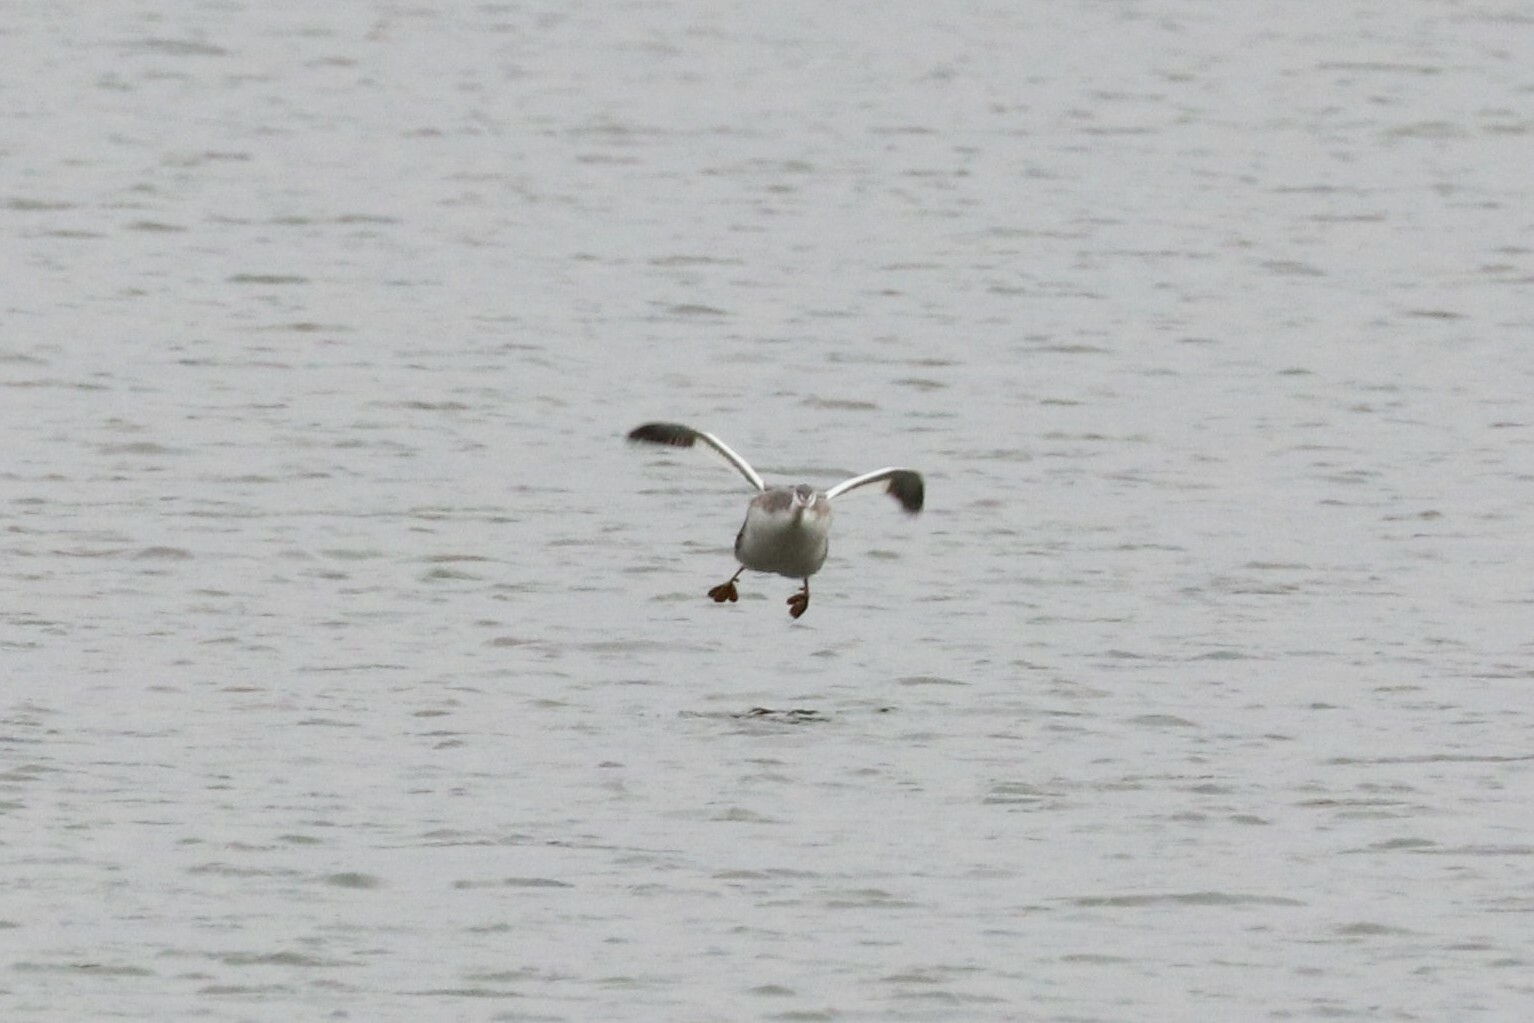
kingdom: Animalia
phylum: Chordata
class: Aves
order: Podicipediformes
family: Podicipedidae
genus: Podiceps
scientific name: Podiceps cristatus
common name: Great crested grebe
